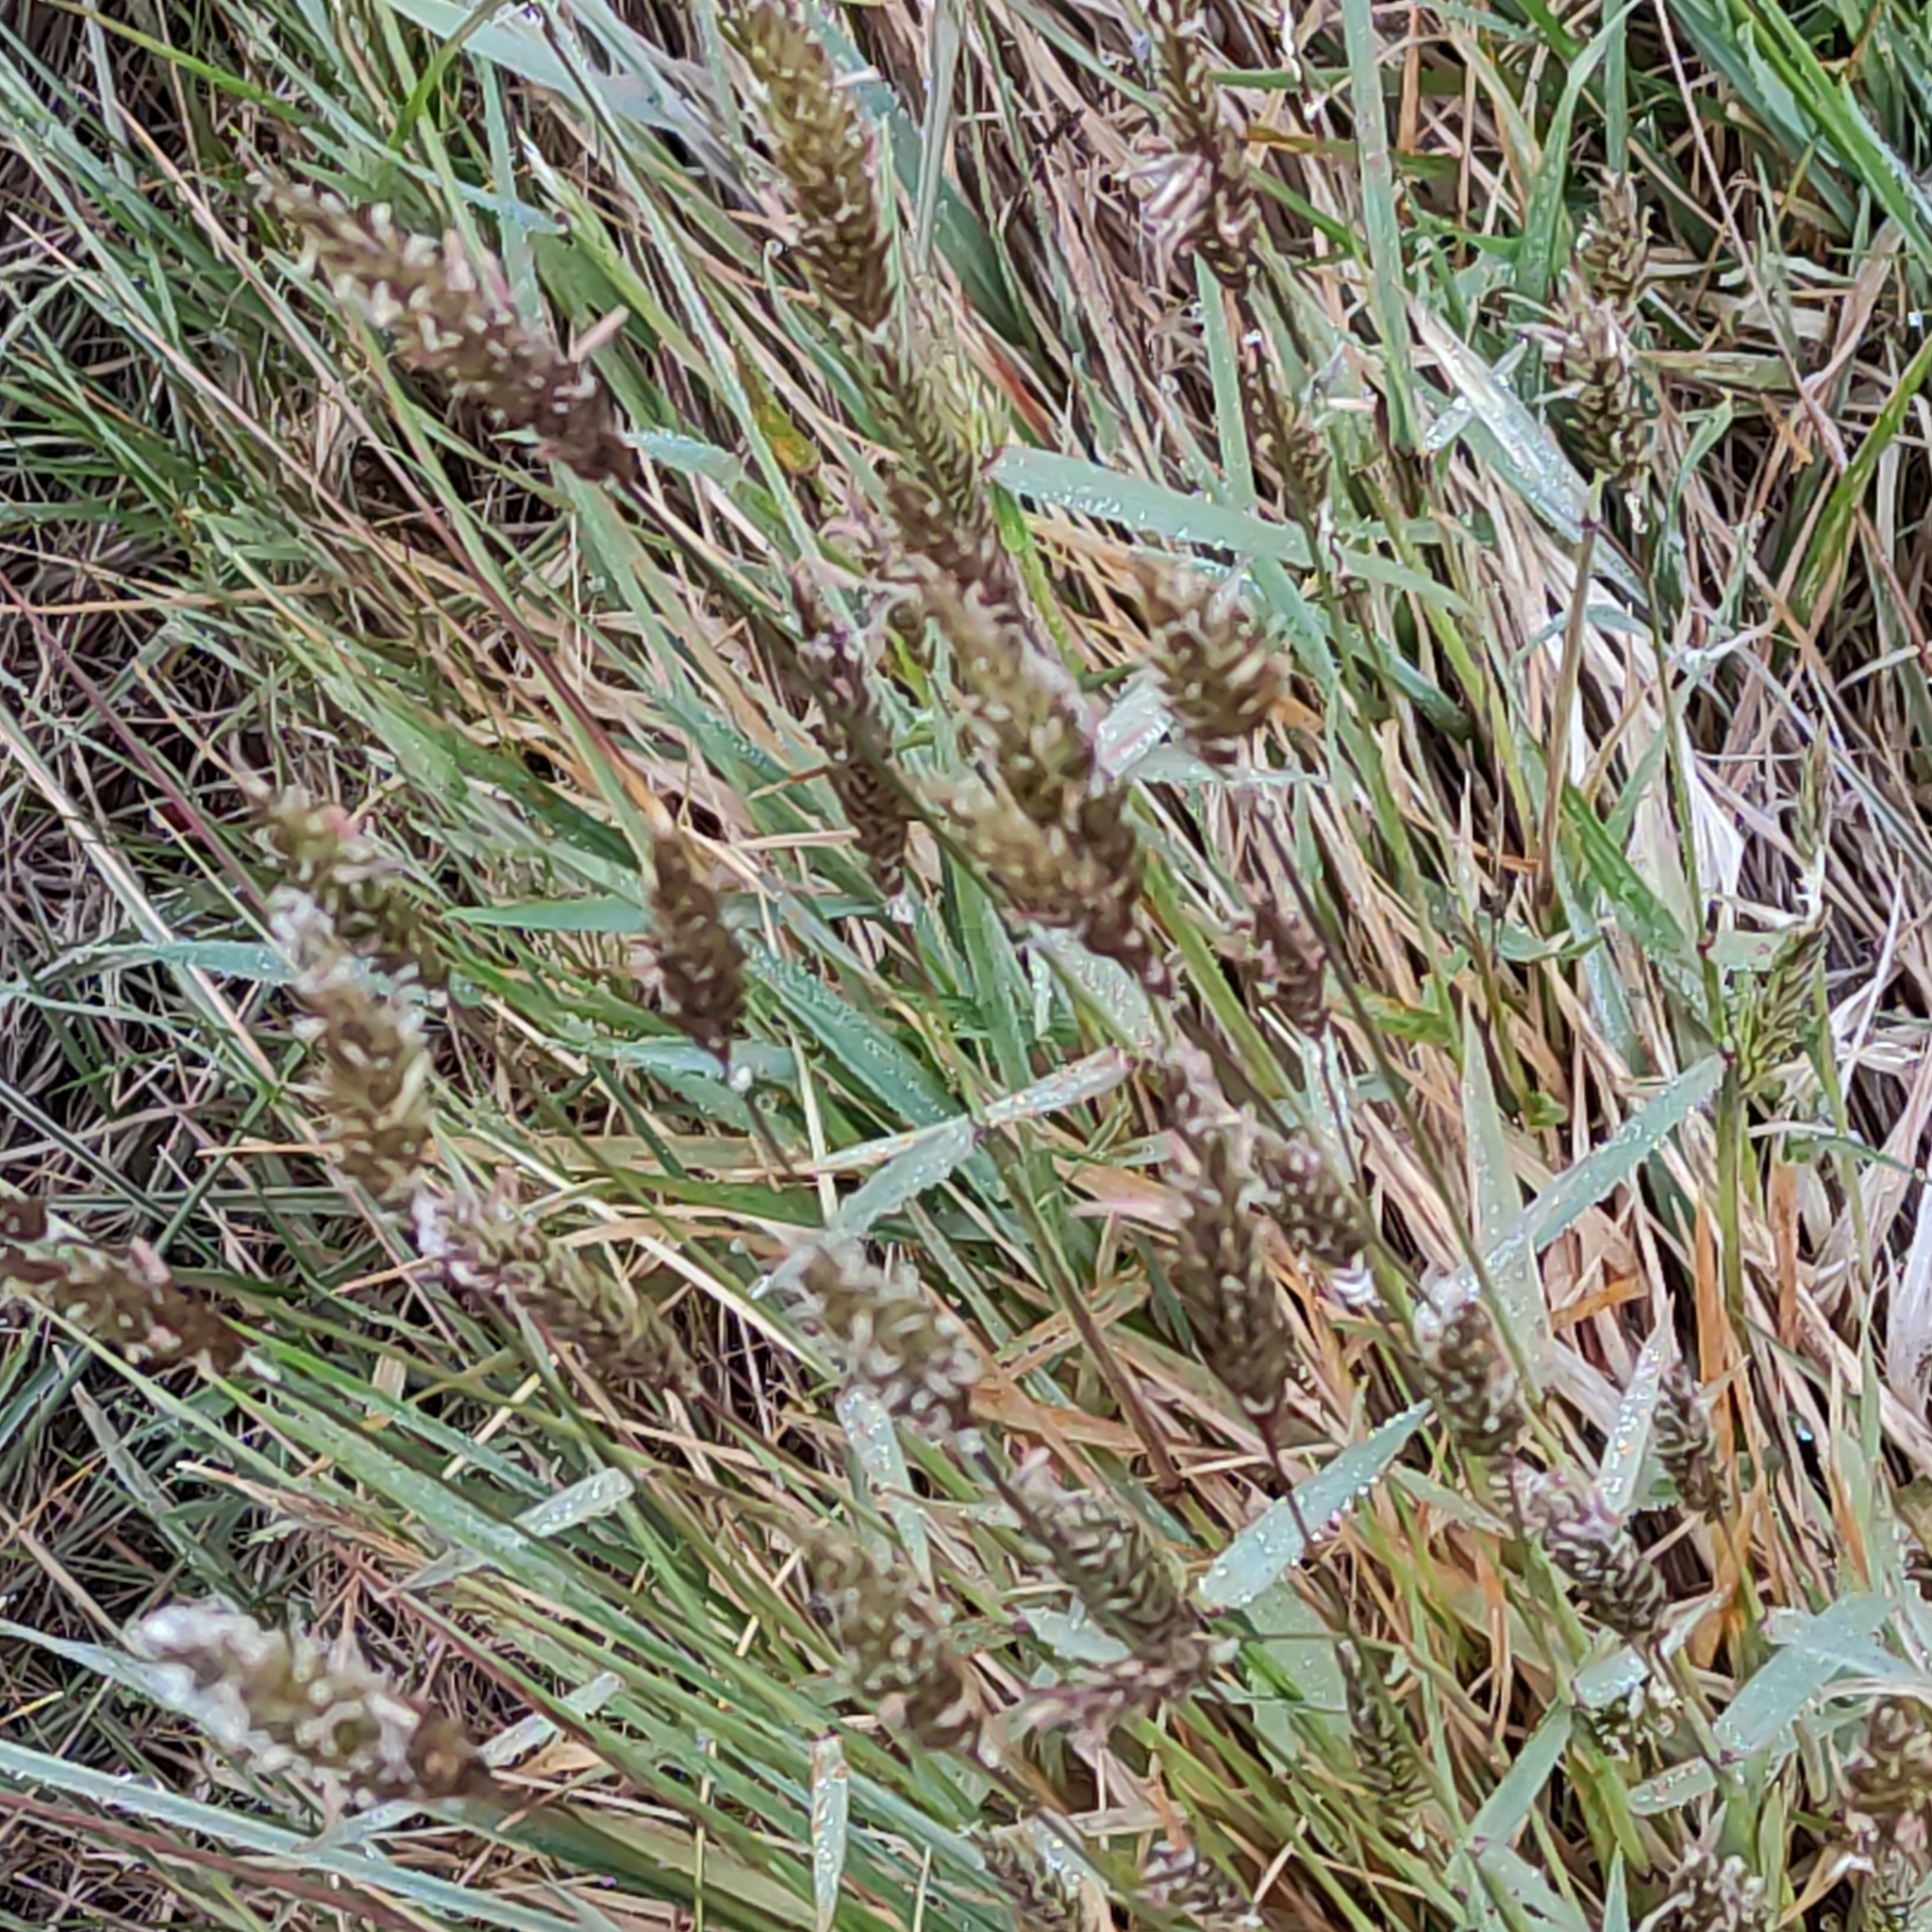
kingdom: Plantae
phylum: Tracheophyta
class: Liliopsida
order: Poales
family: Poaceae
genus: Anthoxanthum
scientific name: Anthoxanthum odoratum
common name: Sweet vernalgrass
